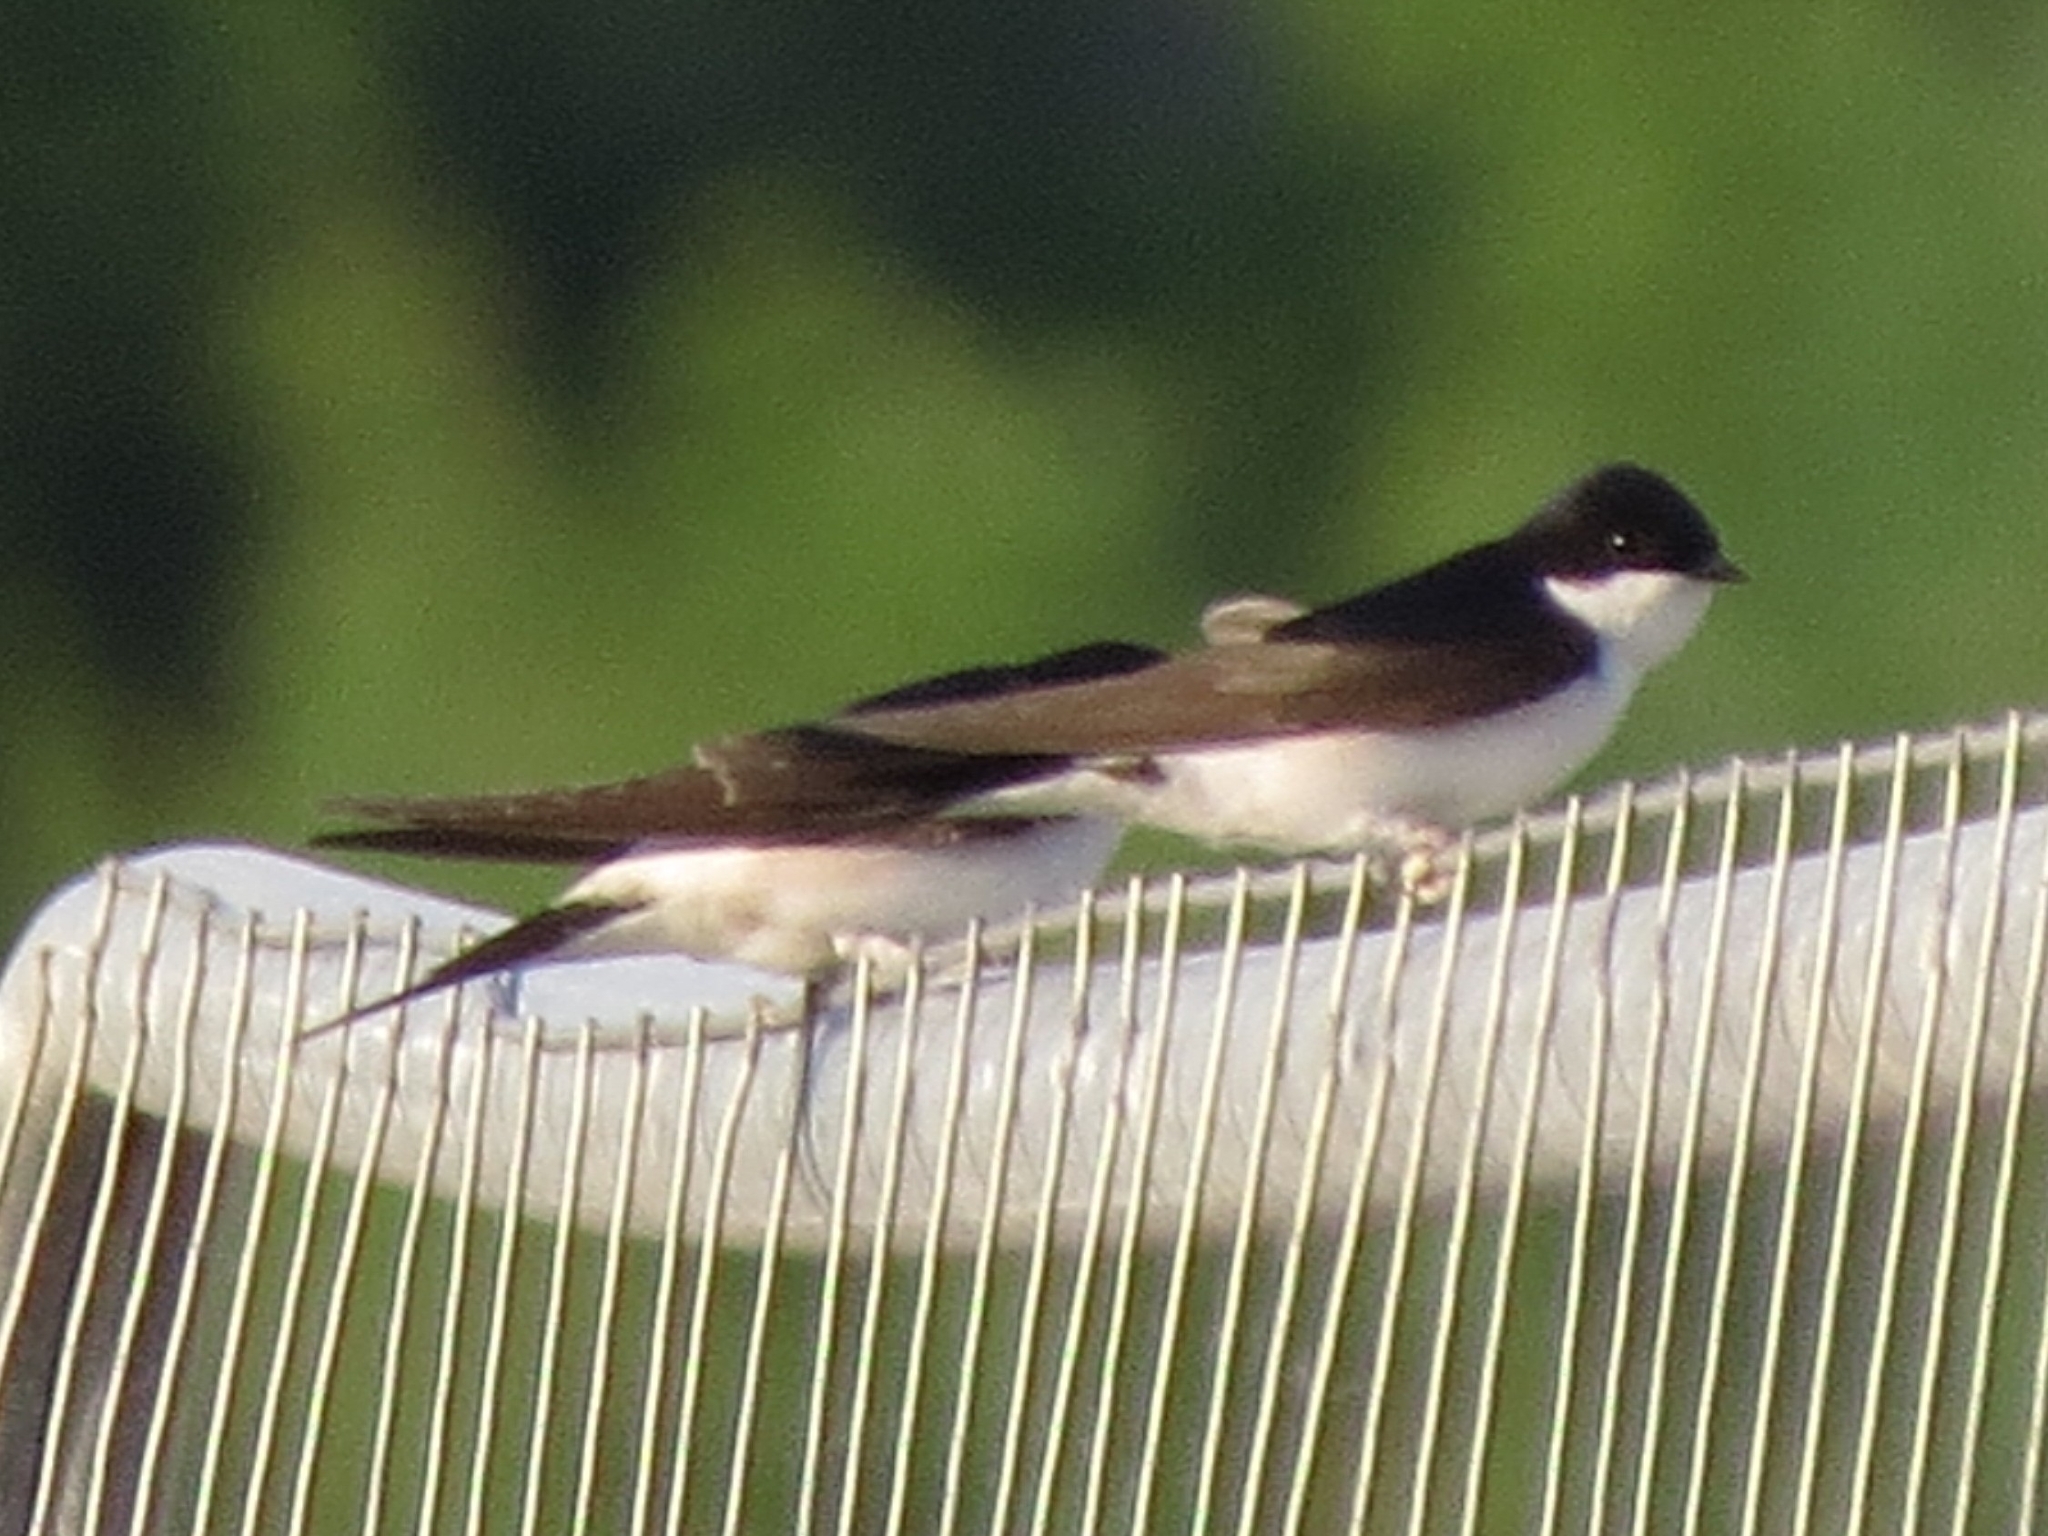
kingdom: Animalia
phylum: Chordata
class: Aves
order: Passeriformes
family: Hirundinidae
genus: Delichon
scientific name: Delichon urbicum
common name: Common house martin
